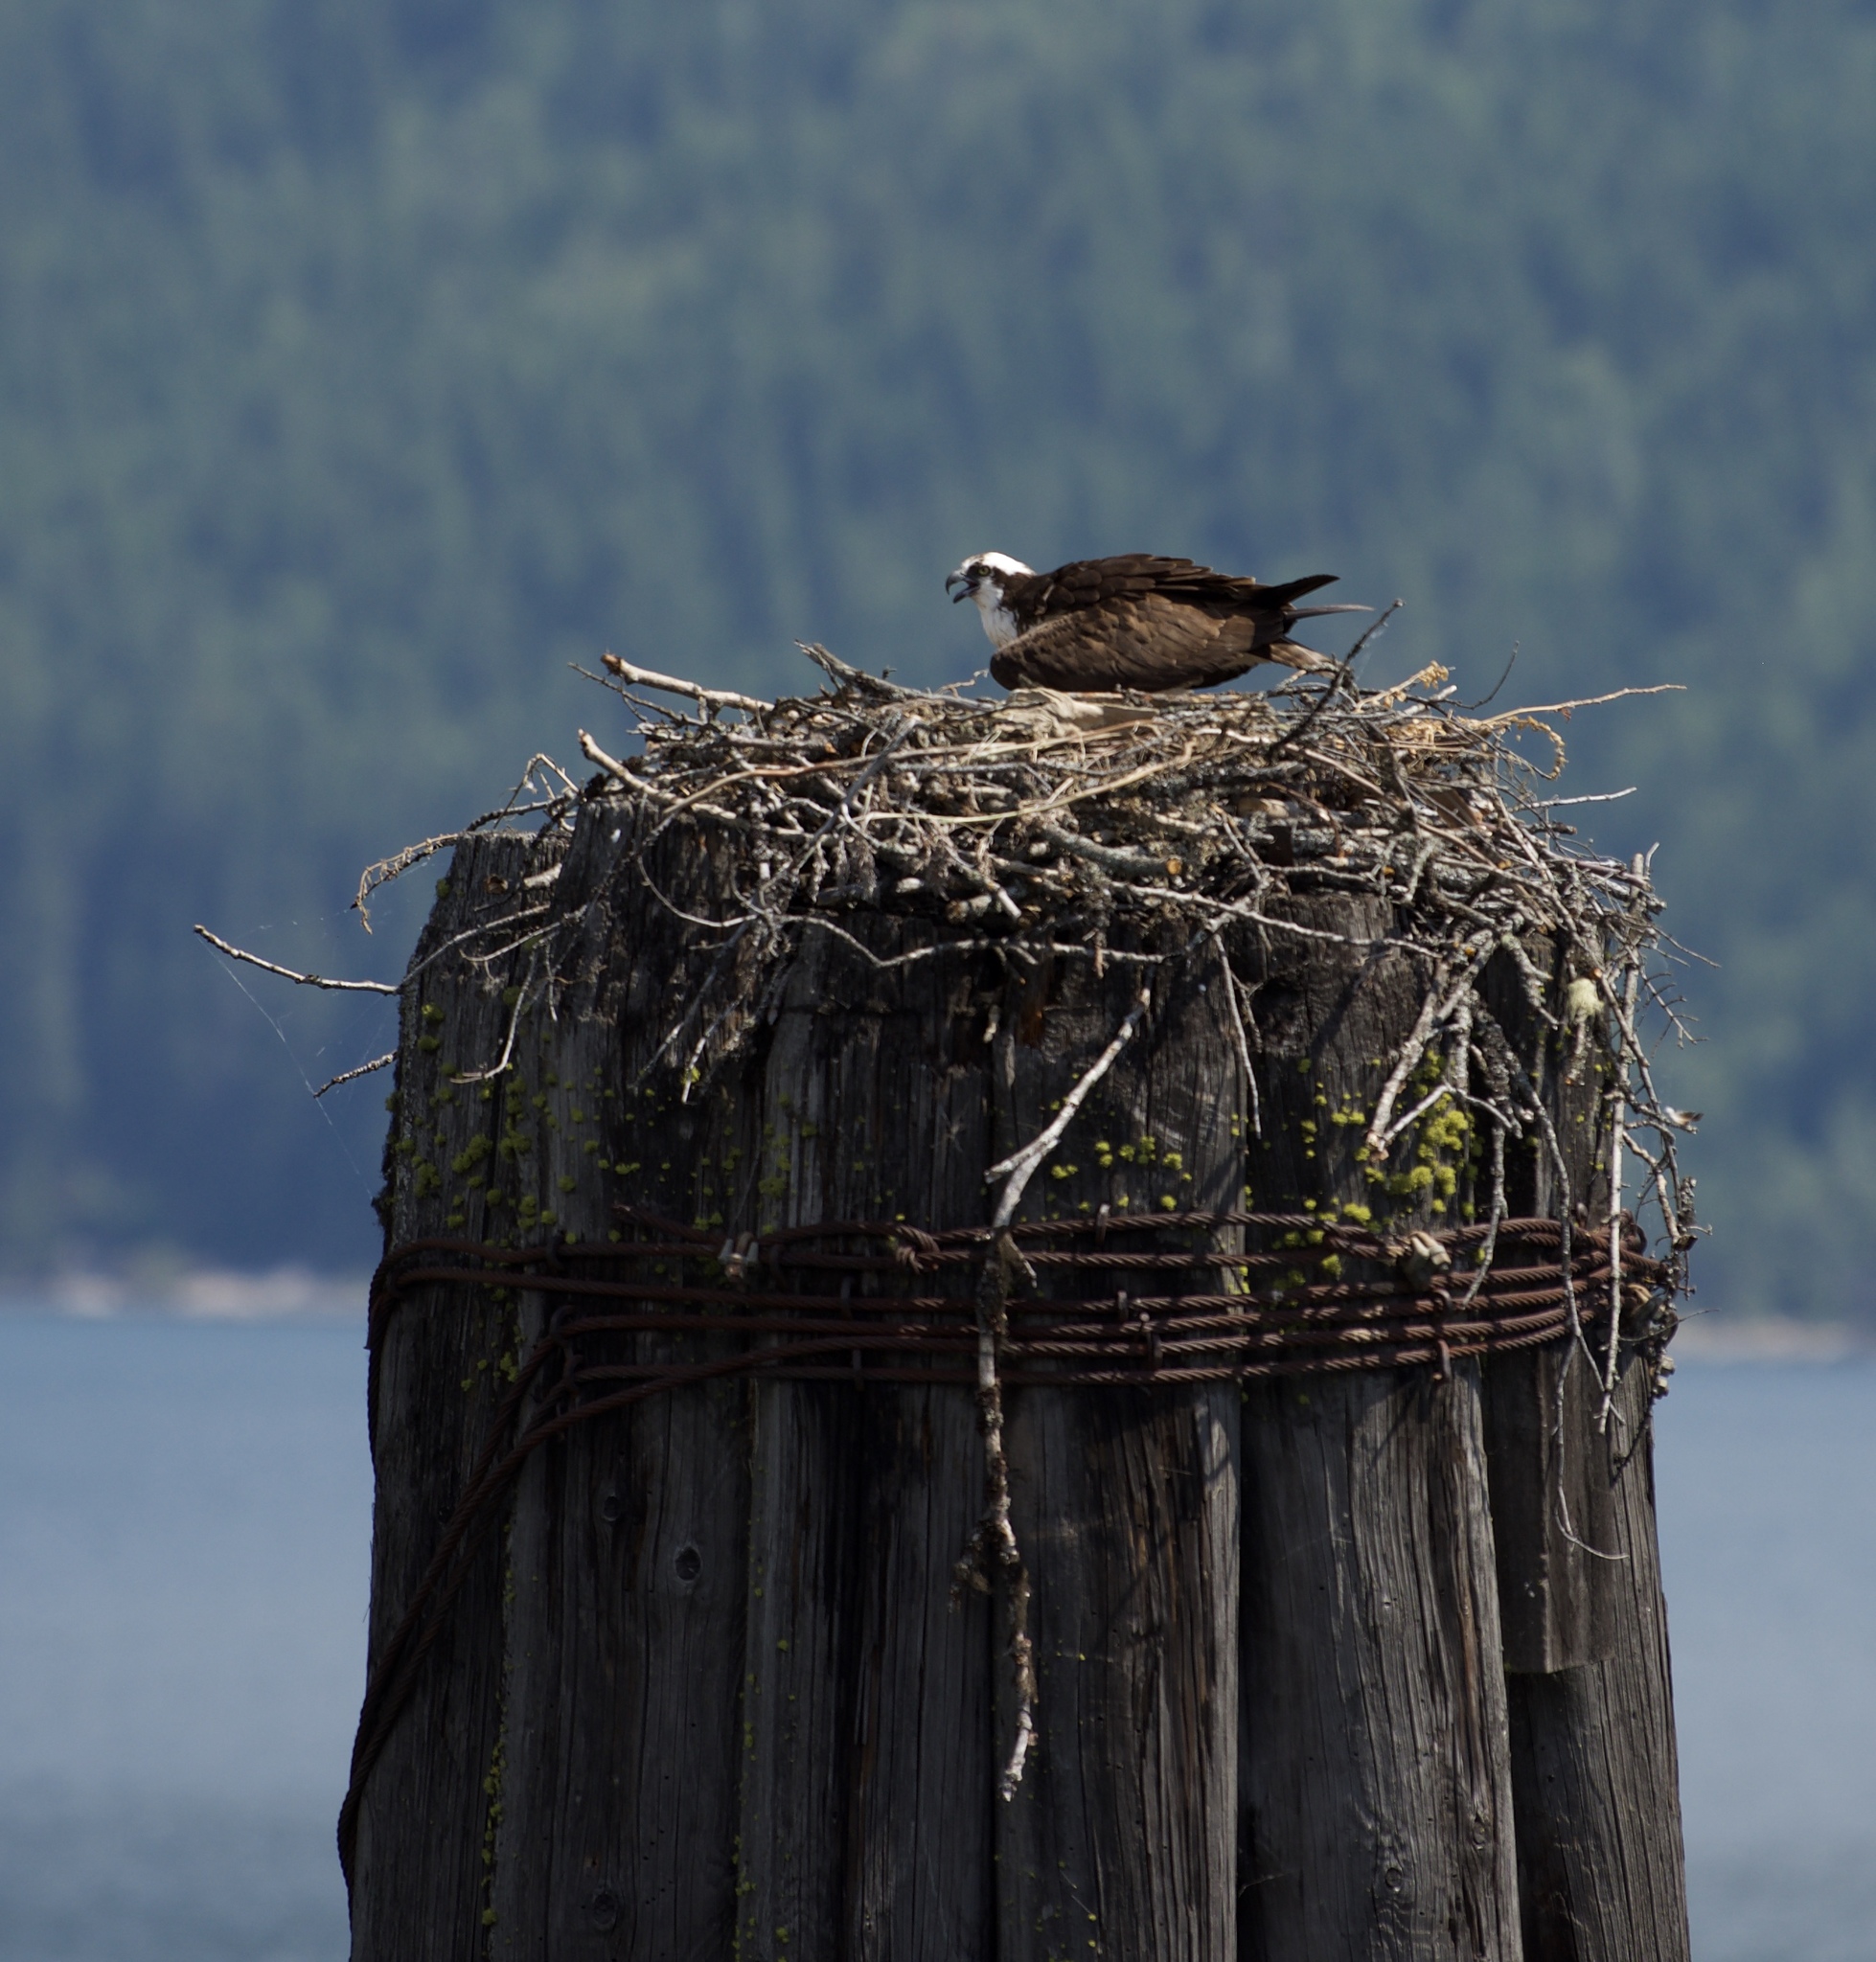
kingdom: Animalia
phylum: Chordata
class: Aves
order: Accipitriformes
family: Pandionidae
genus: Pandion
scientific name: Pandion haliaetus
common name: Osprey
